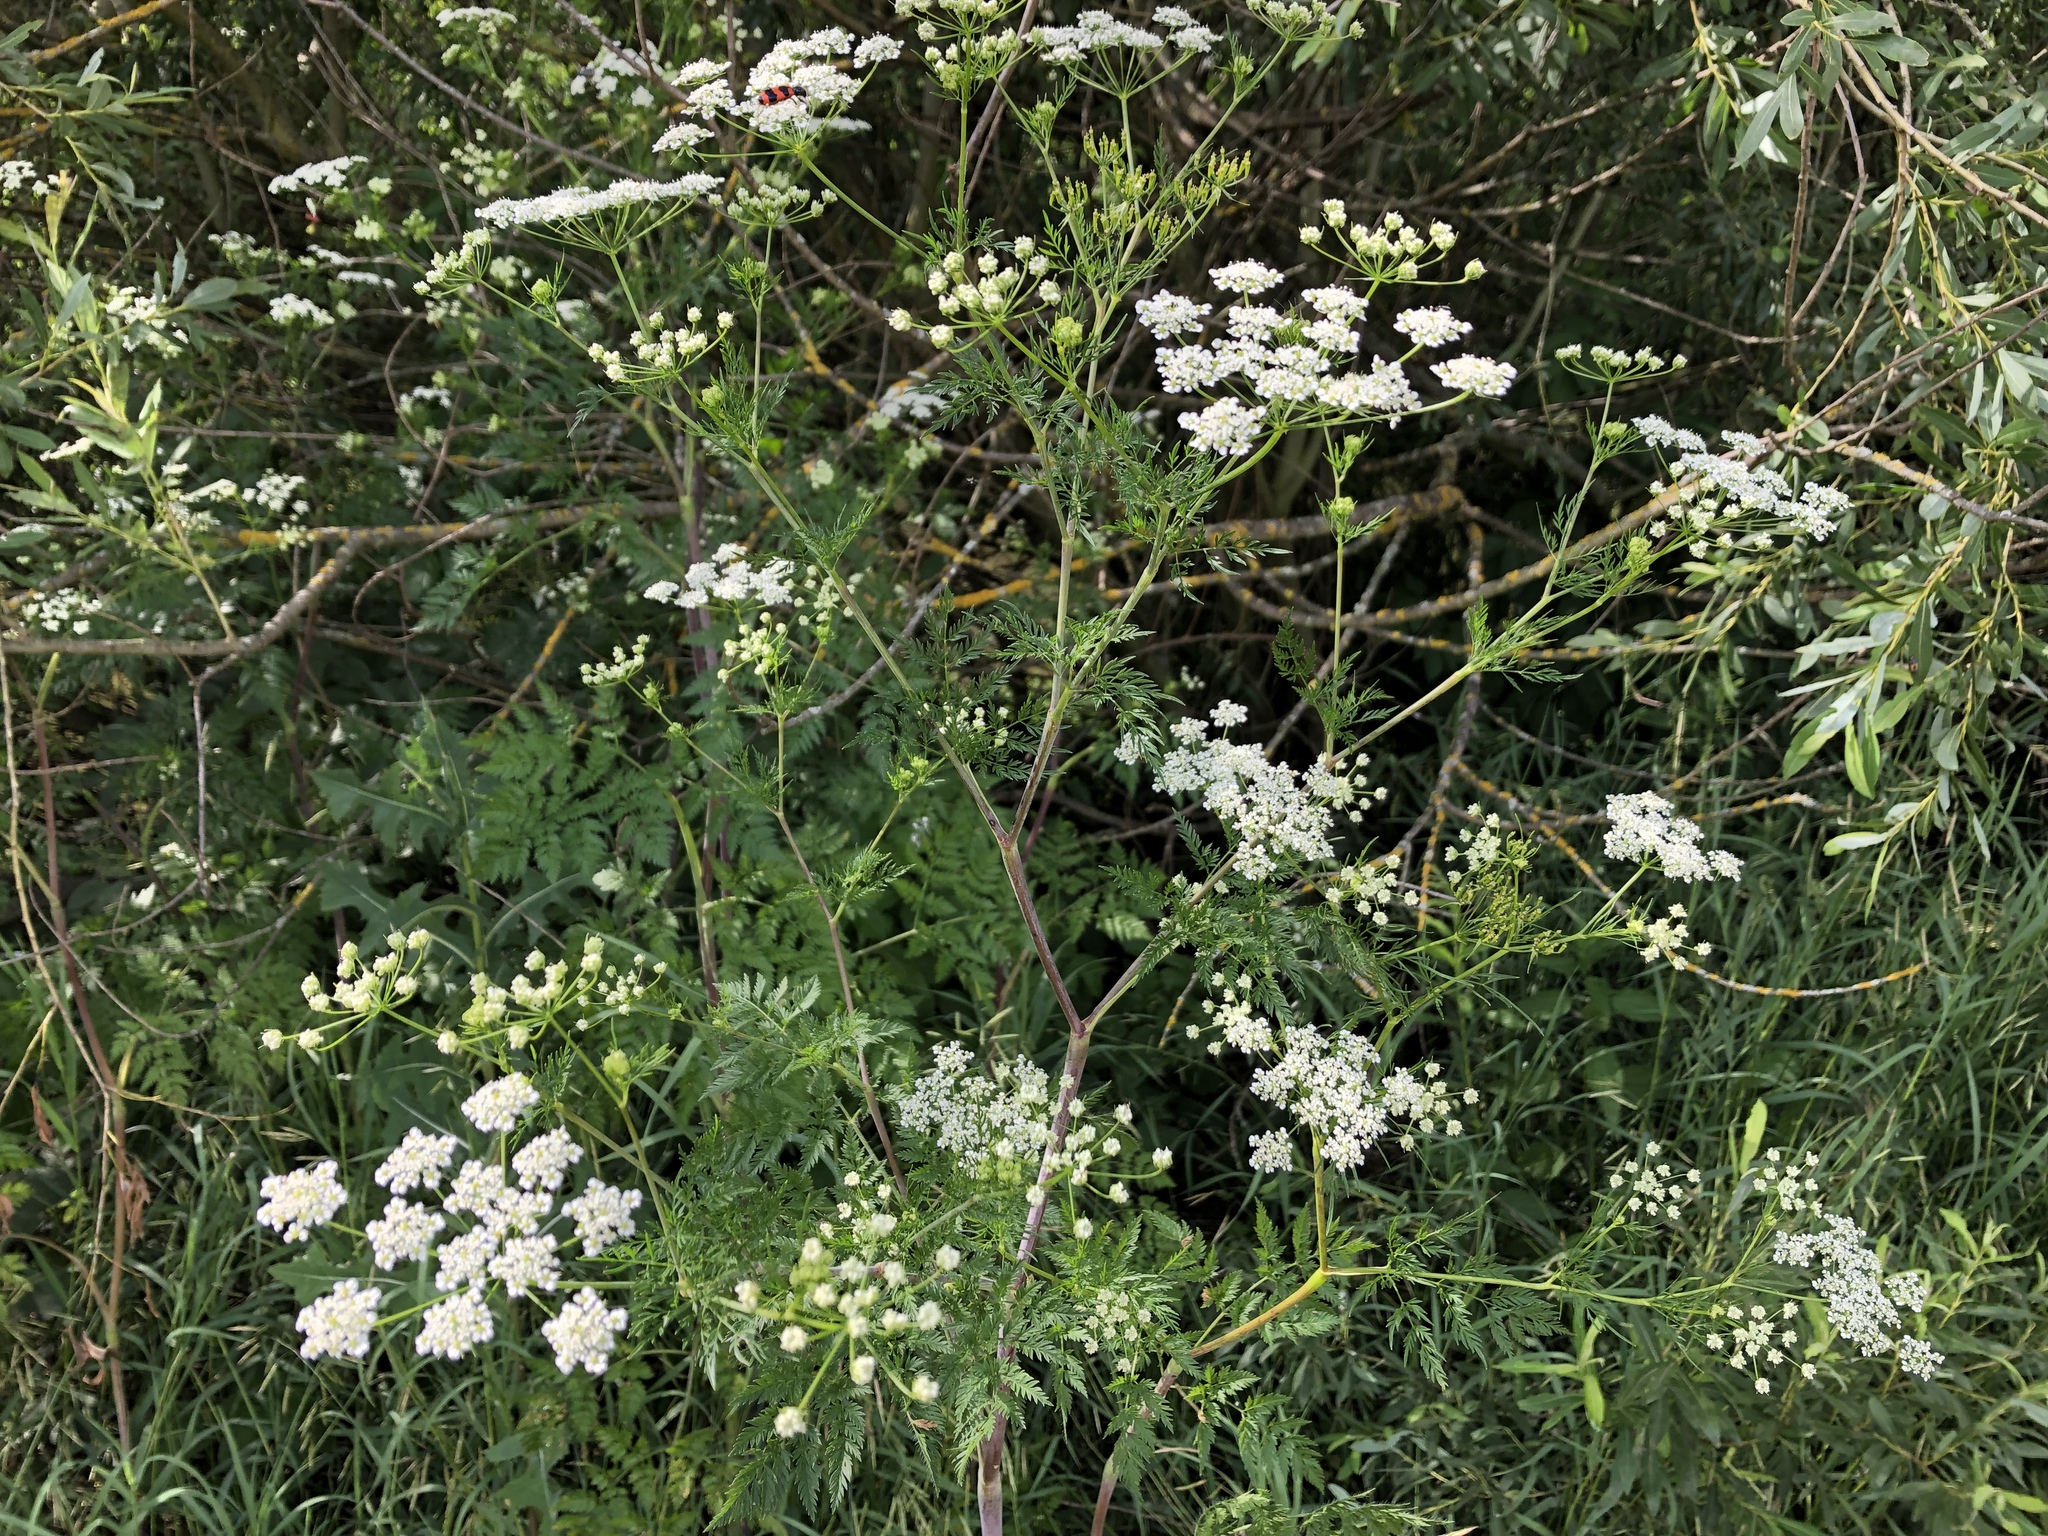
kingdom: Plantae
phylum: Tracheophyta
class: Magnoliopsida
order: Apiales
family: Apiaceae
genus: Chaerophyllum
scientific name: Chaerophyllum bulbosum
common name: Bulbous chervil
